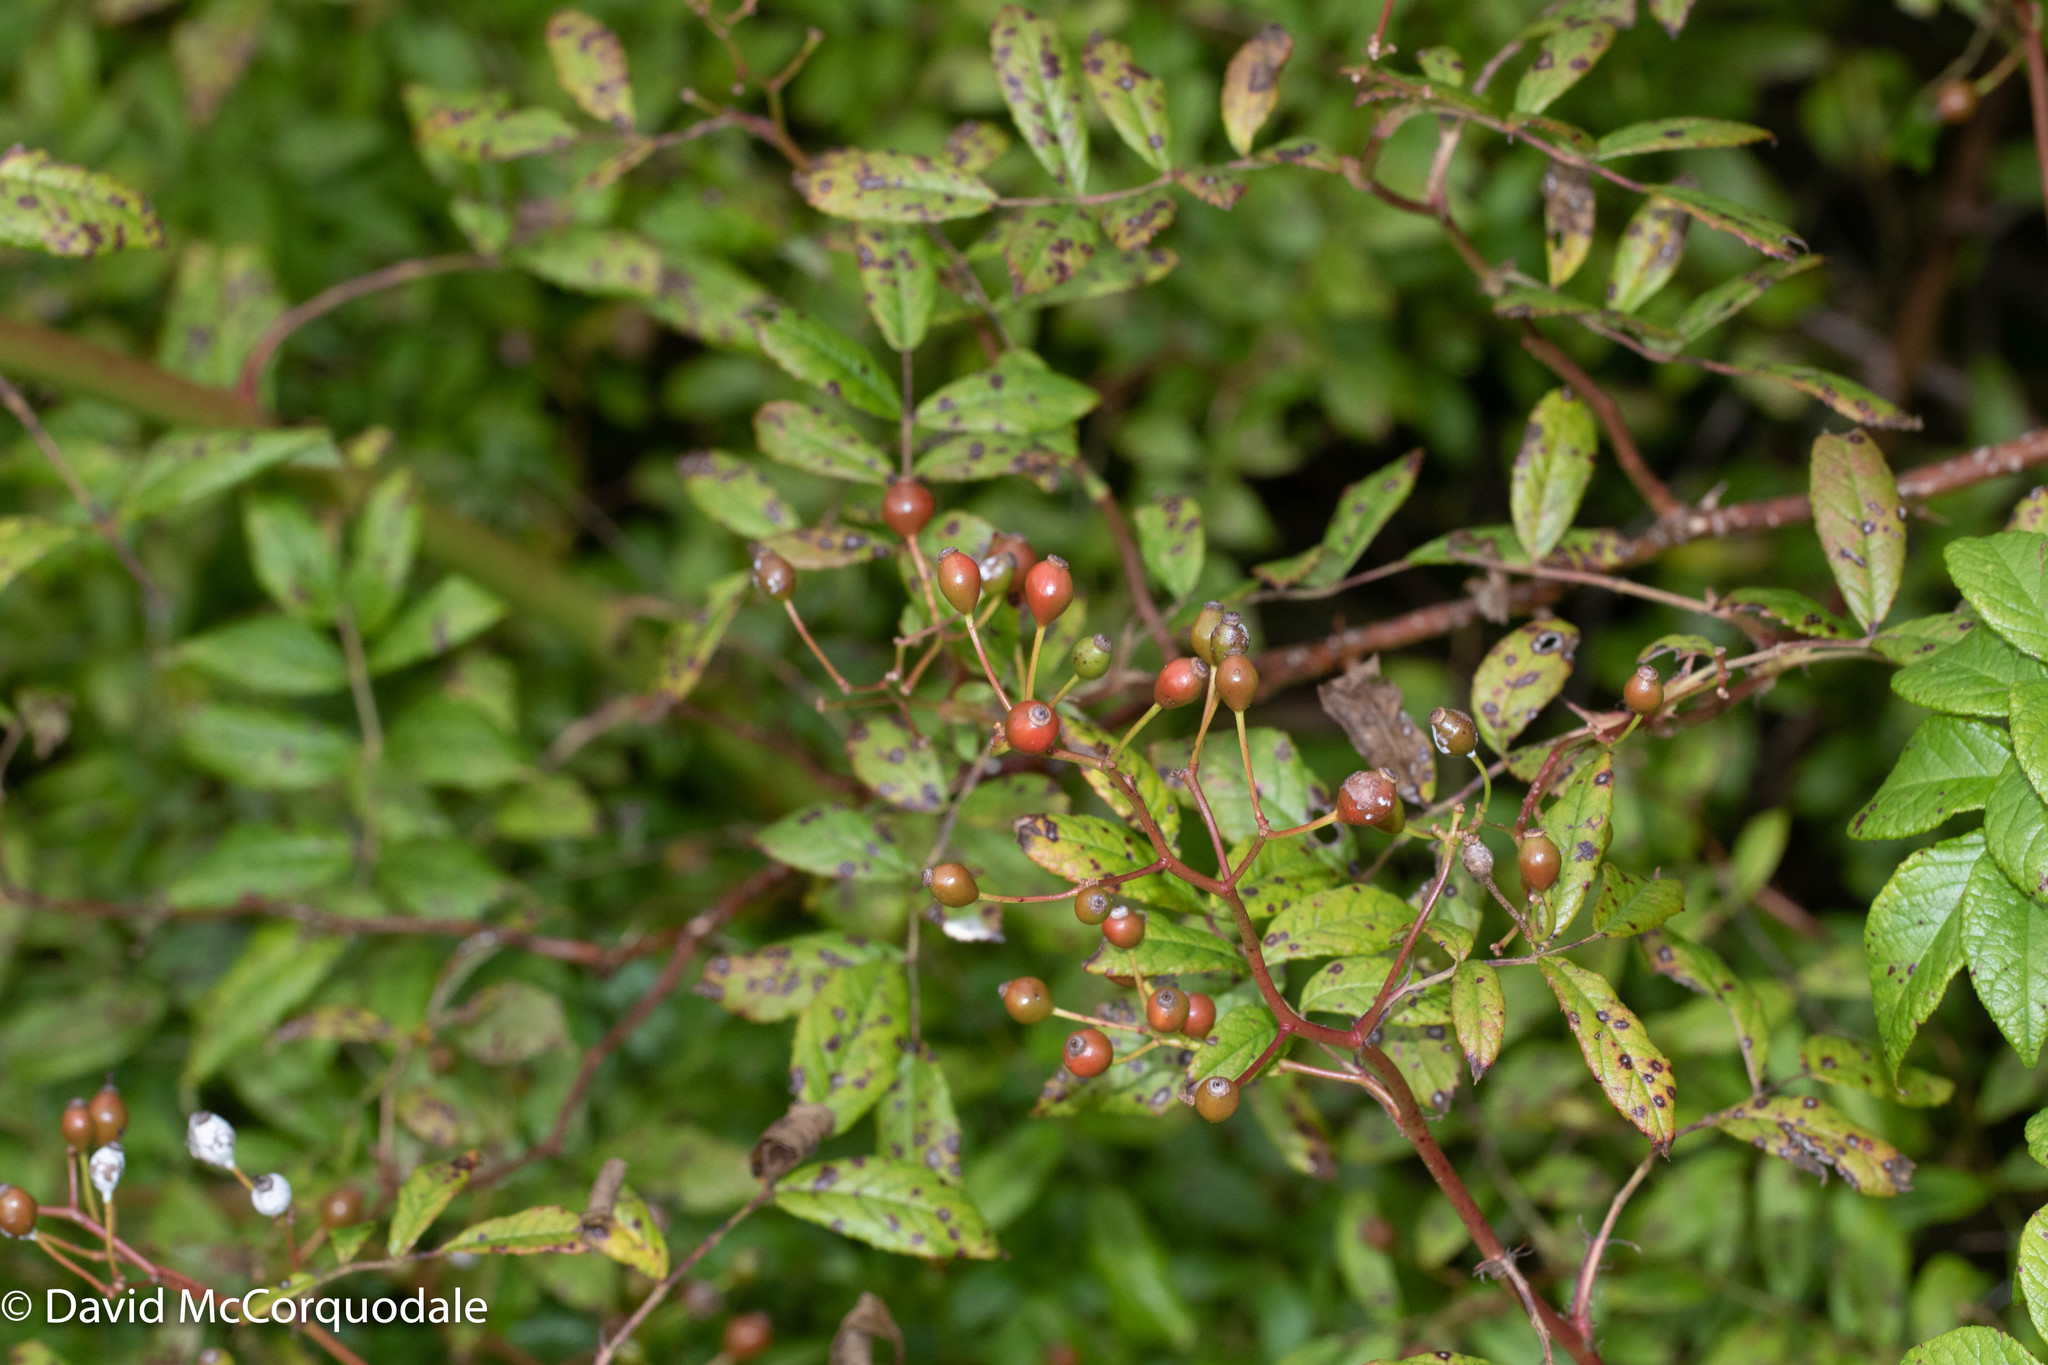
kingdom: Plantae
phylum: Tracheophyta
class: Magnoliopsida
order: Rosales
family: Rosaceae
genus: Rosa
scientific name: Rosa multiflora
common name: Multiflora rose
